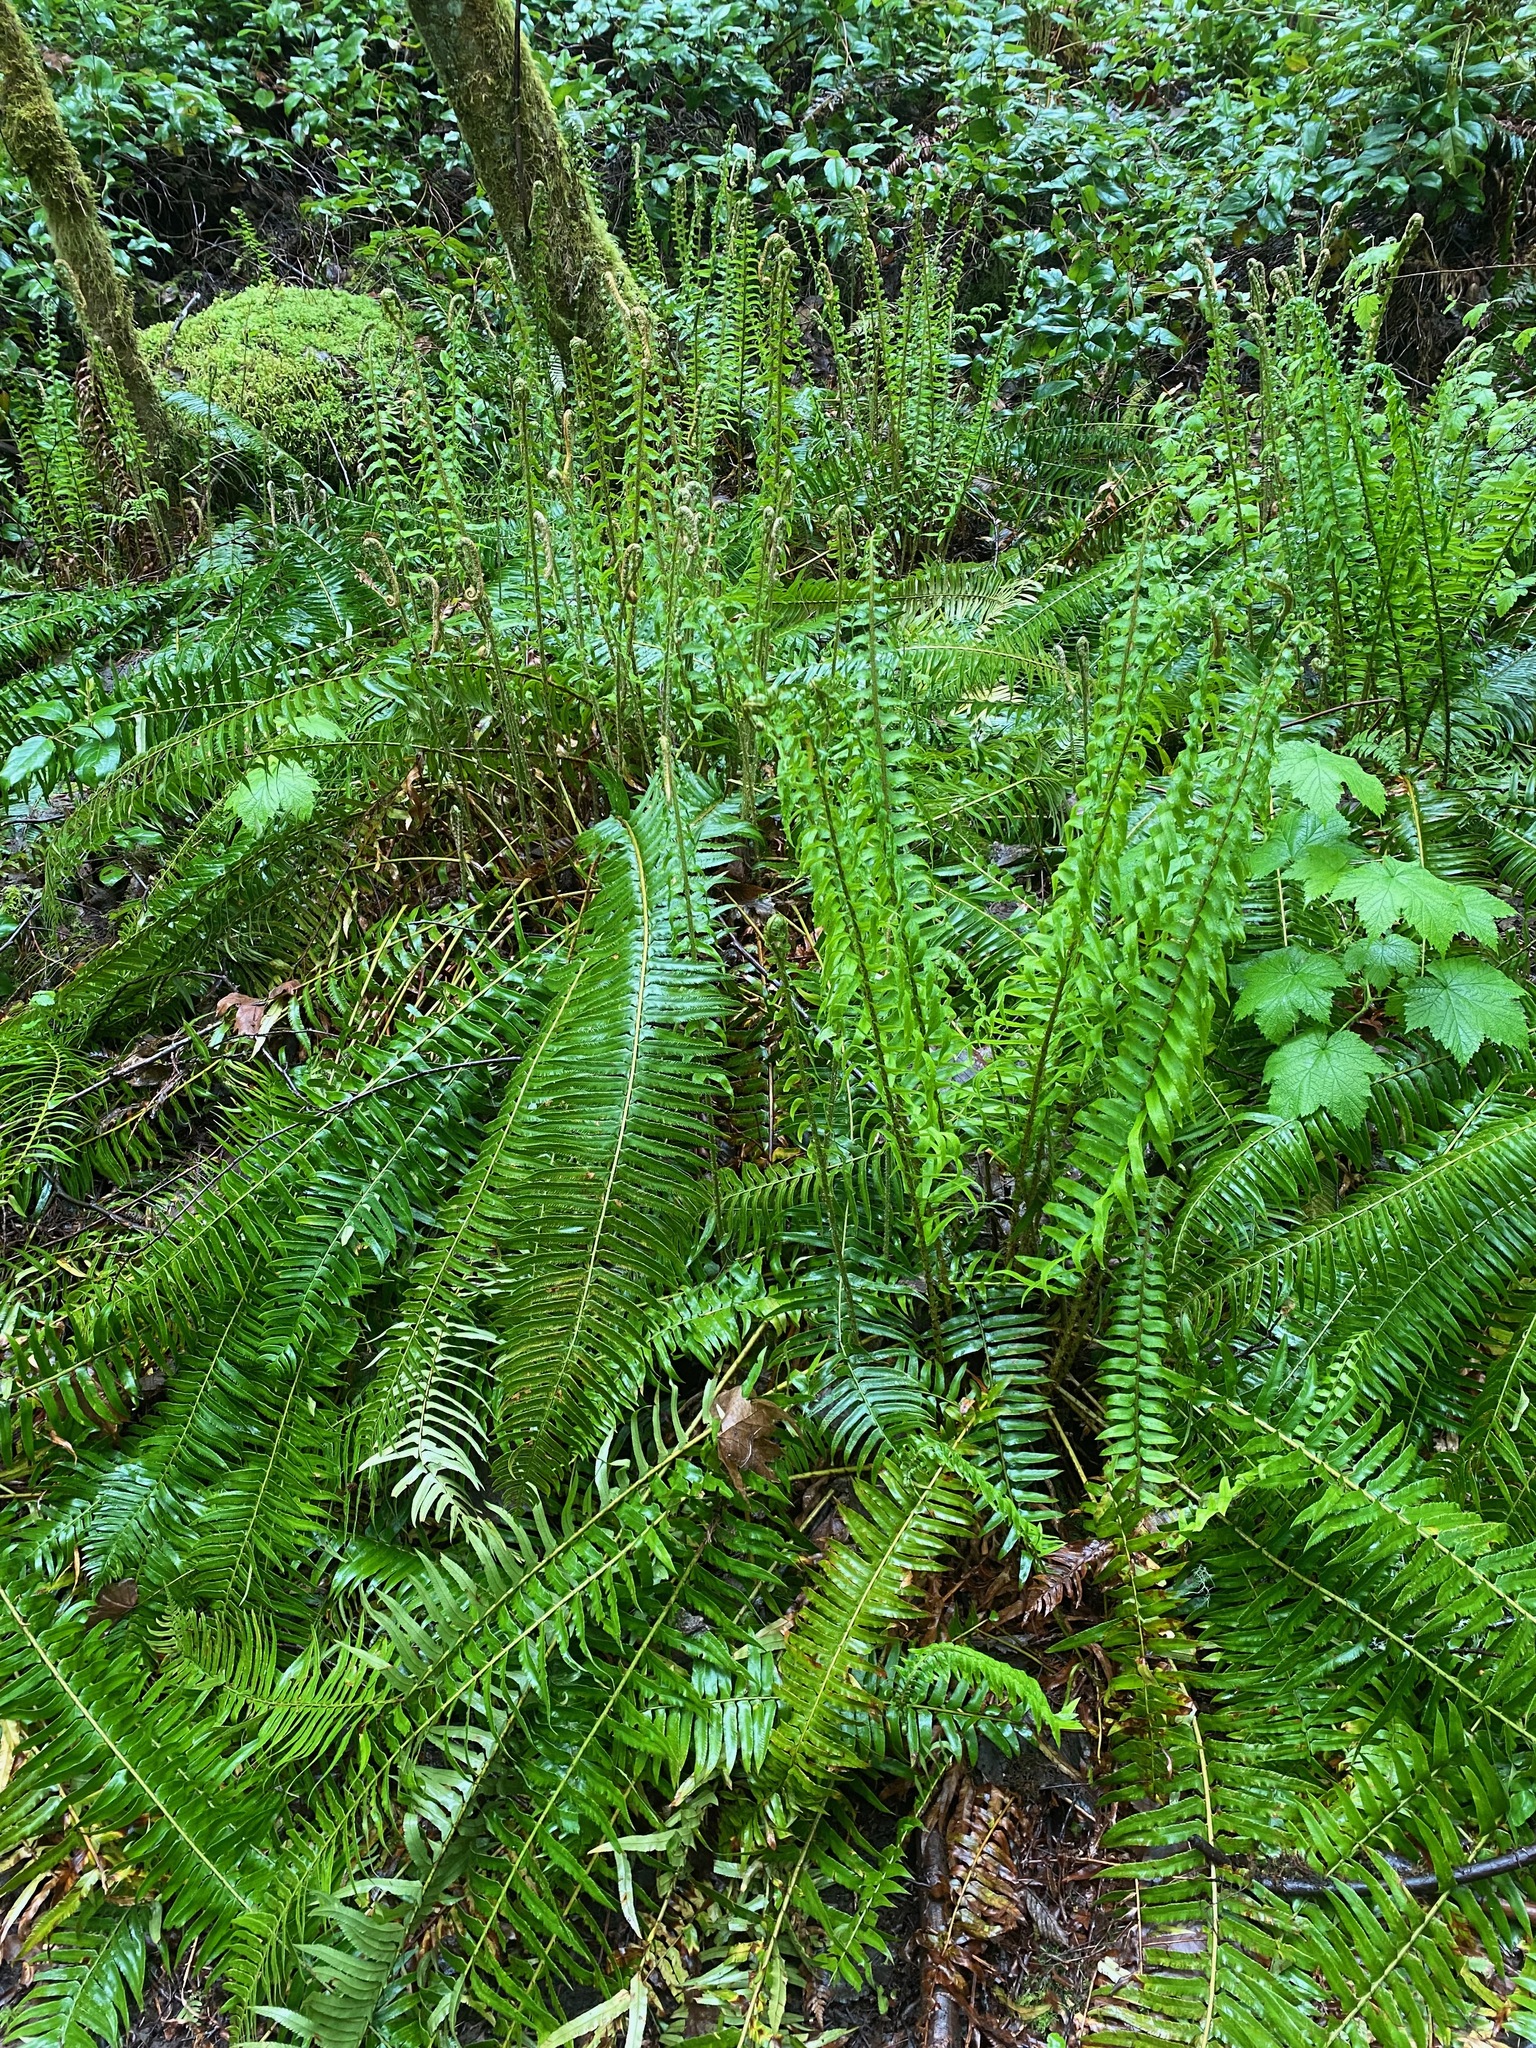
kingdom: Plantae
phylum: Tracheophyta
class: Polypodiopsida
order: Polypodiales
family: Dryopteridaceae
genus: Polystichum
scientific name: Polystichum munitum
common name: Western sword-fern
